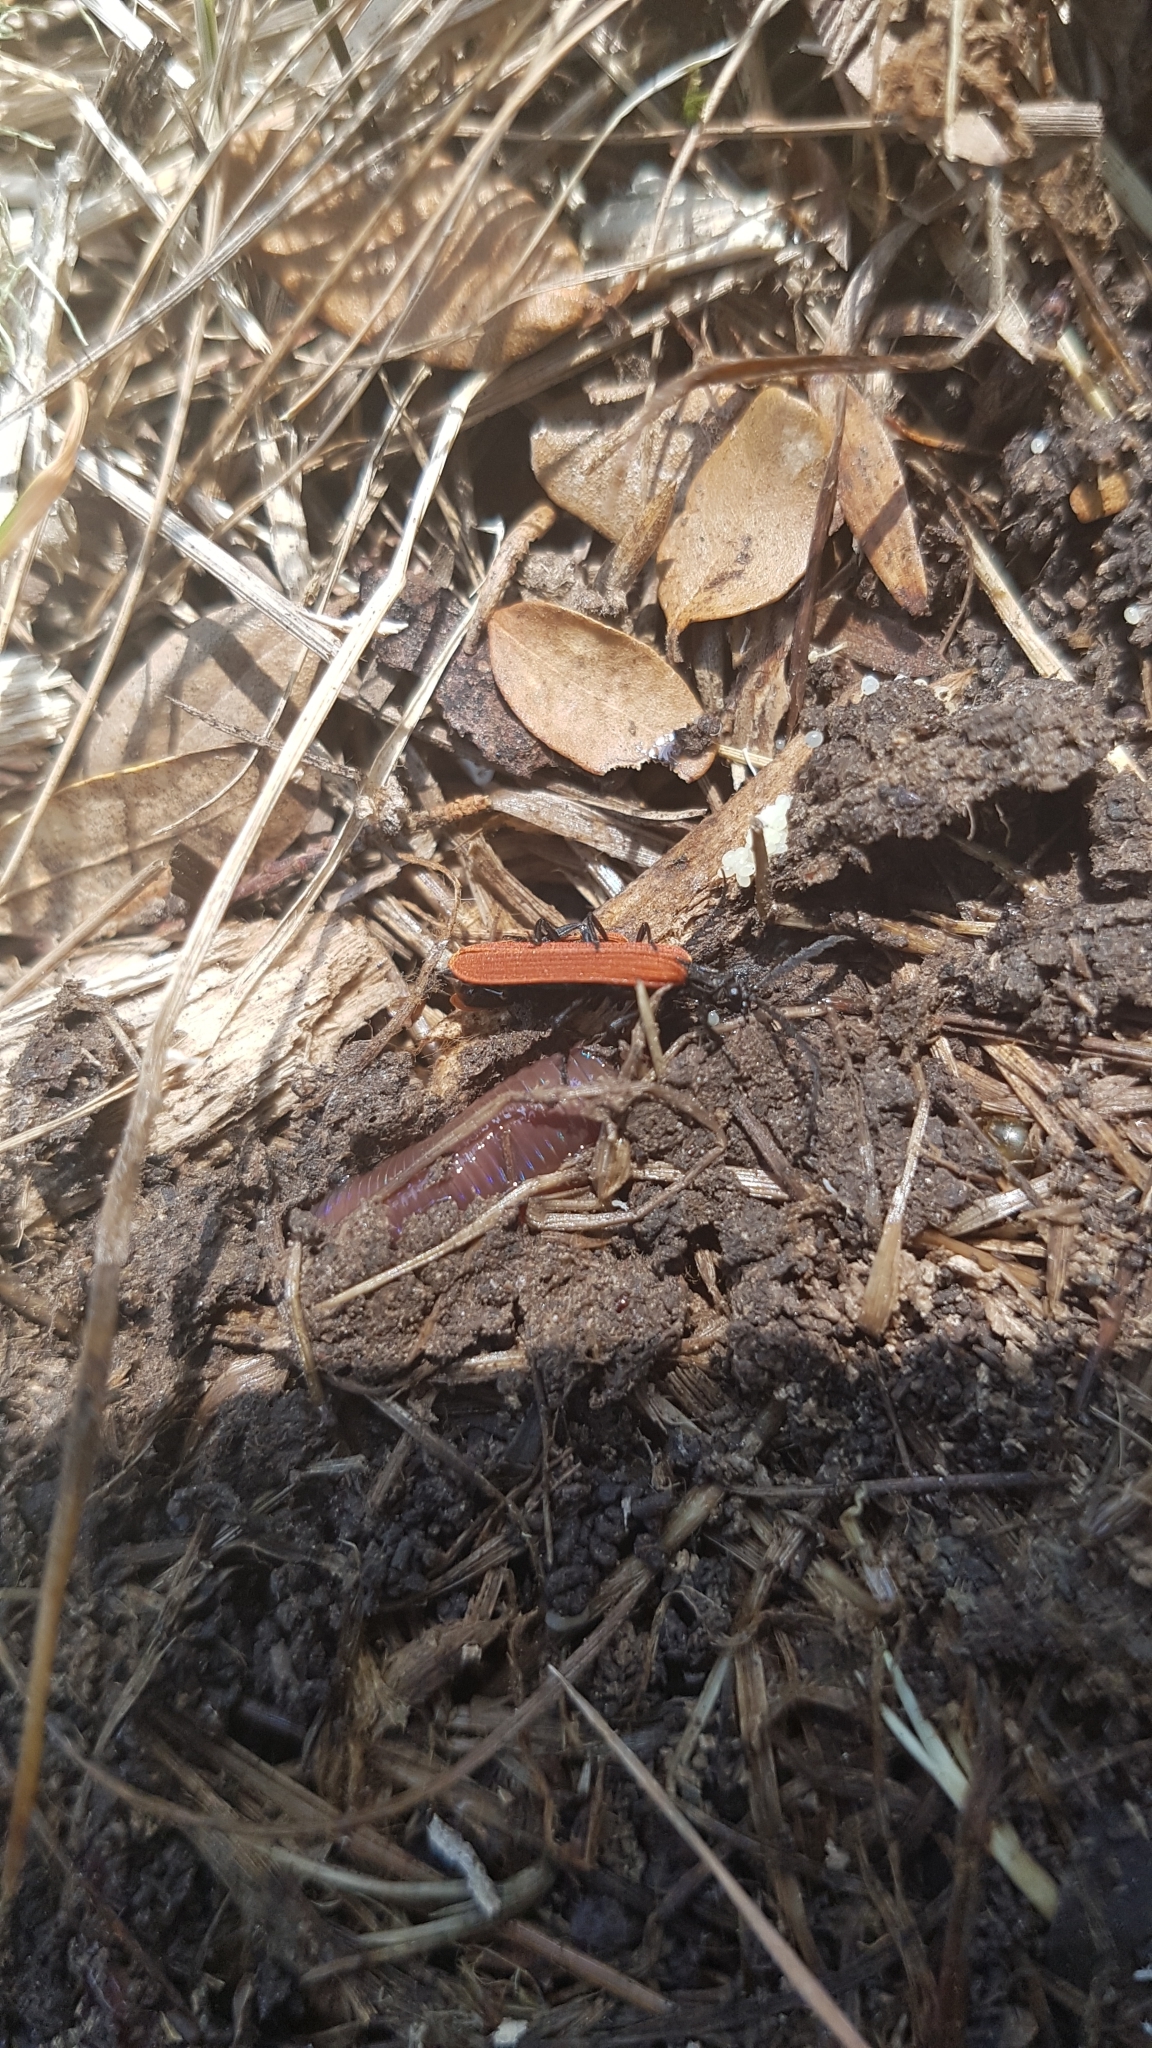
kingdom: Animalia
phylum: Arthropoda
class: Insecta
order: Coleoptera
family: Lycidae
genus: Porrostoma
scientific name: Porrostoma rufipenne
